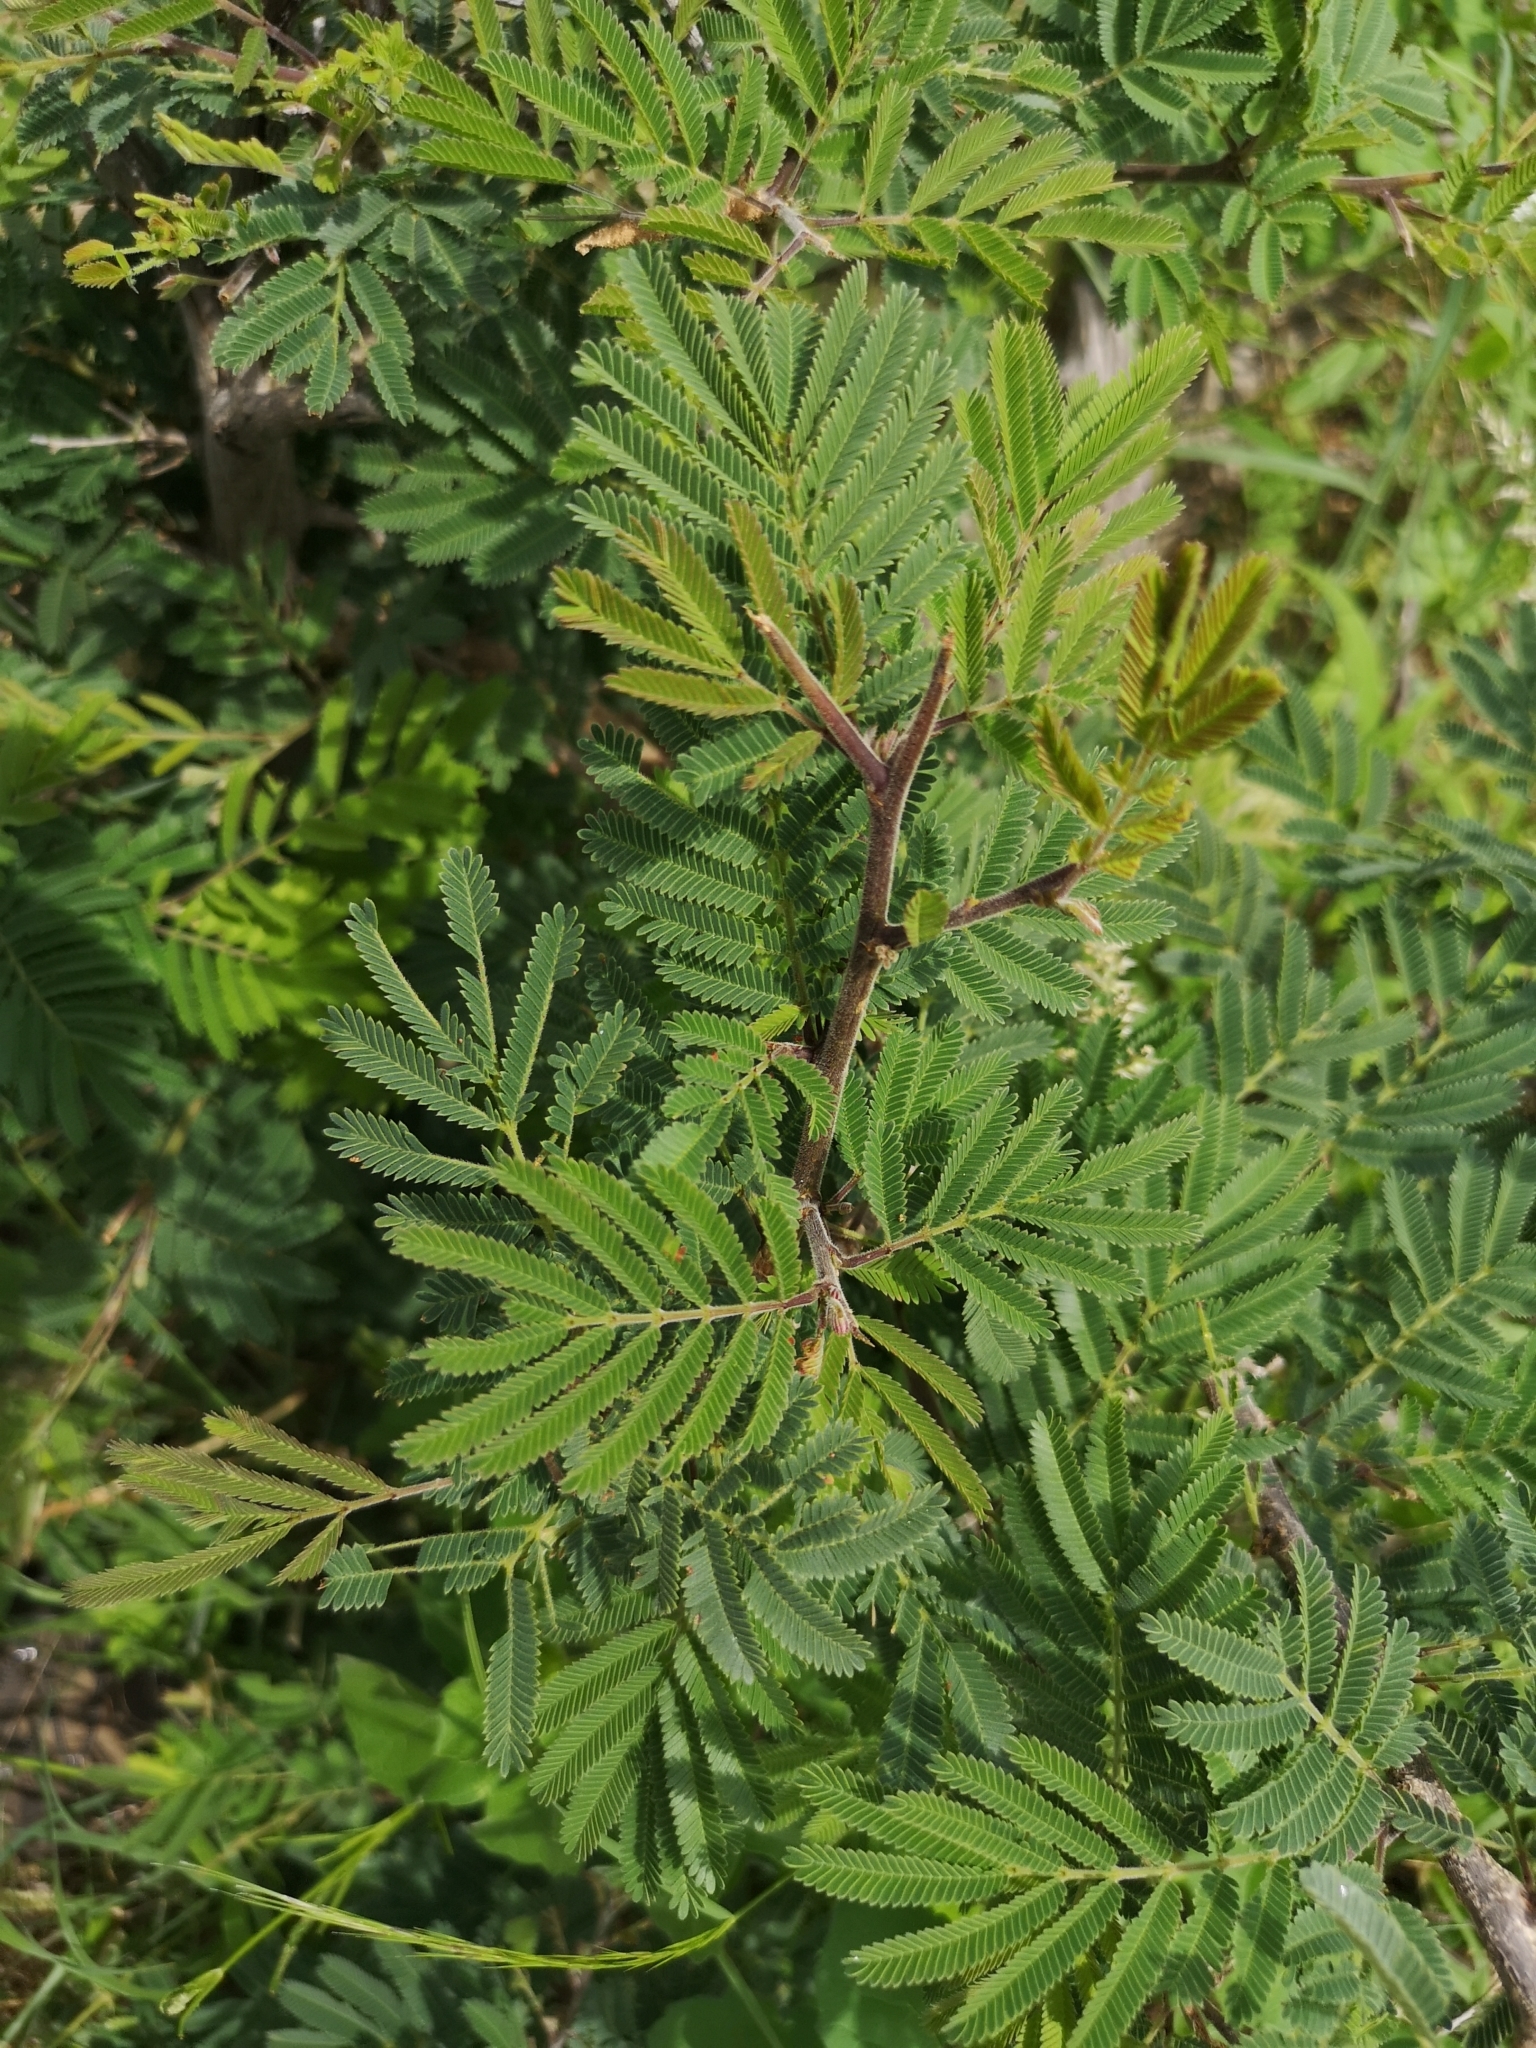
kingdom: Plantae
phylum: Tracheophyta
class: Magnoliopsida
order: Fabales
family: Fabaceae
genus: Dichrostachys
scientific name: Dichrostachys cinerea
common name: Sicklebush
